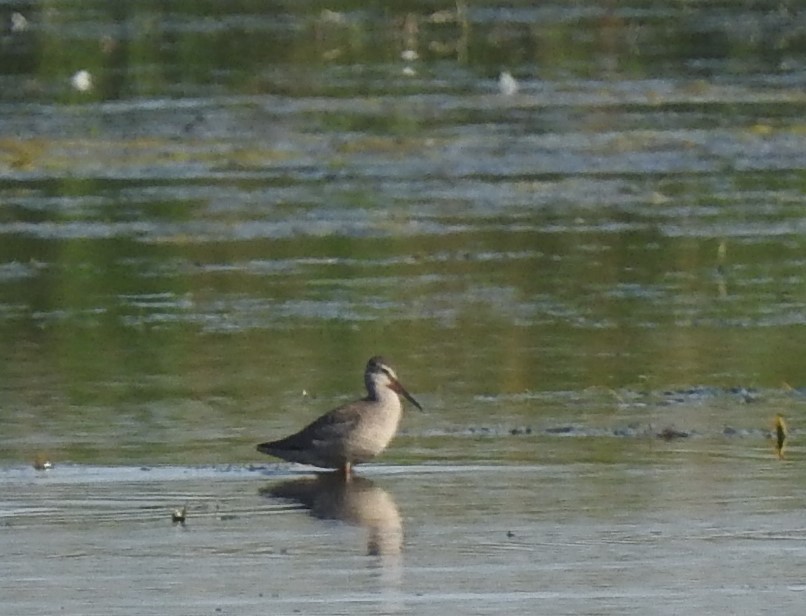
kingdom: Animalia
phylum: Chordata
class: Aves
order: Charadriiformes
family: Scolopacidae
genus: Tringa
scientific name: Tringa erythropus
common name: Spotted redshank
